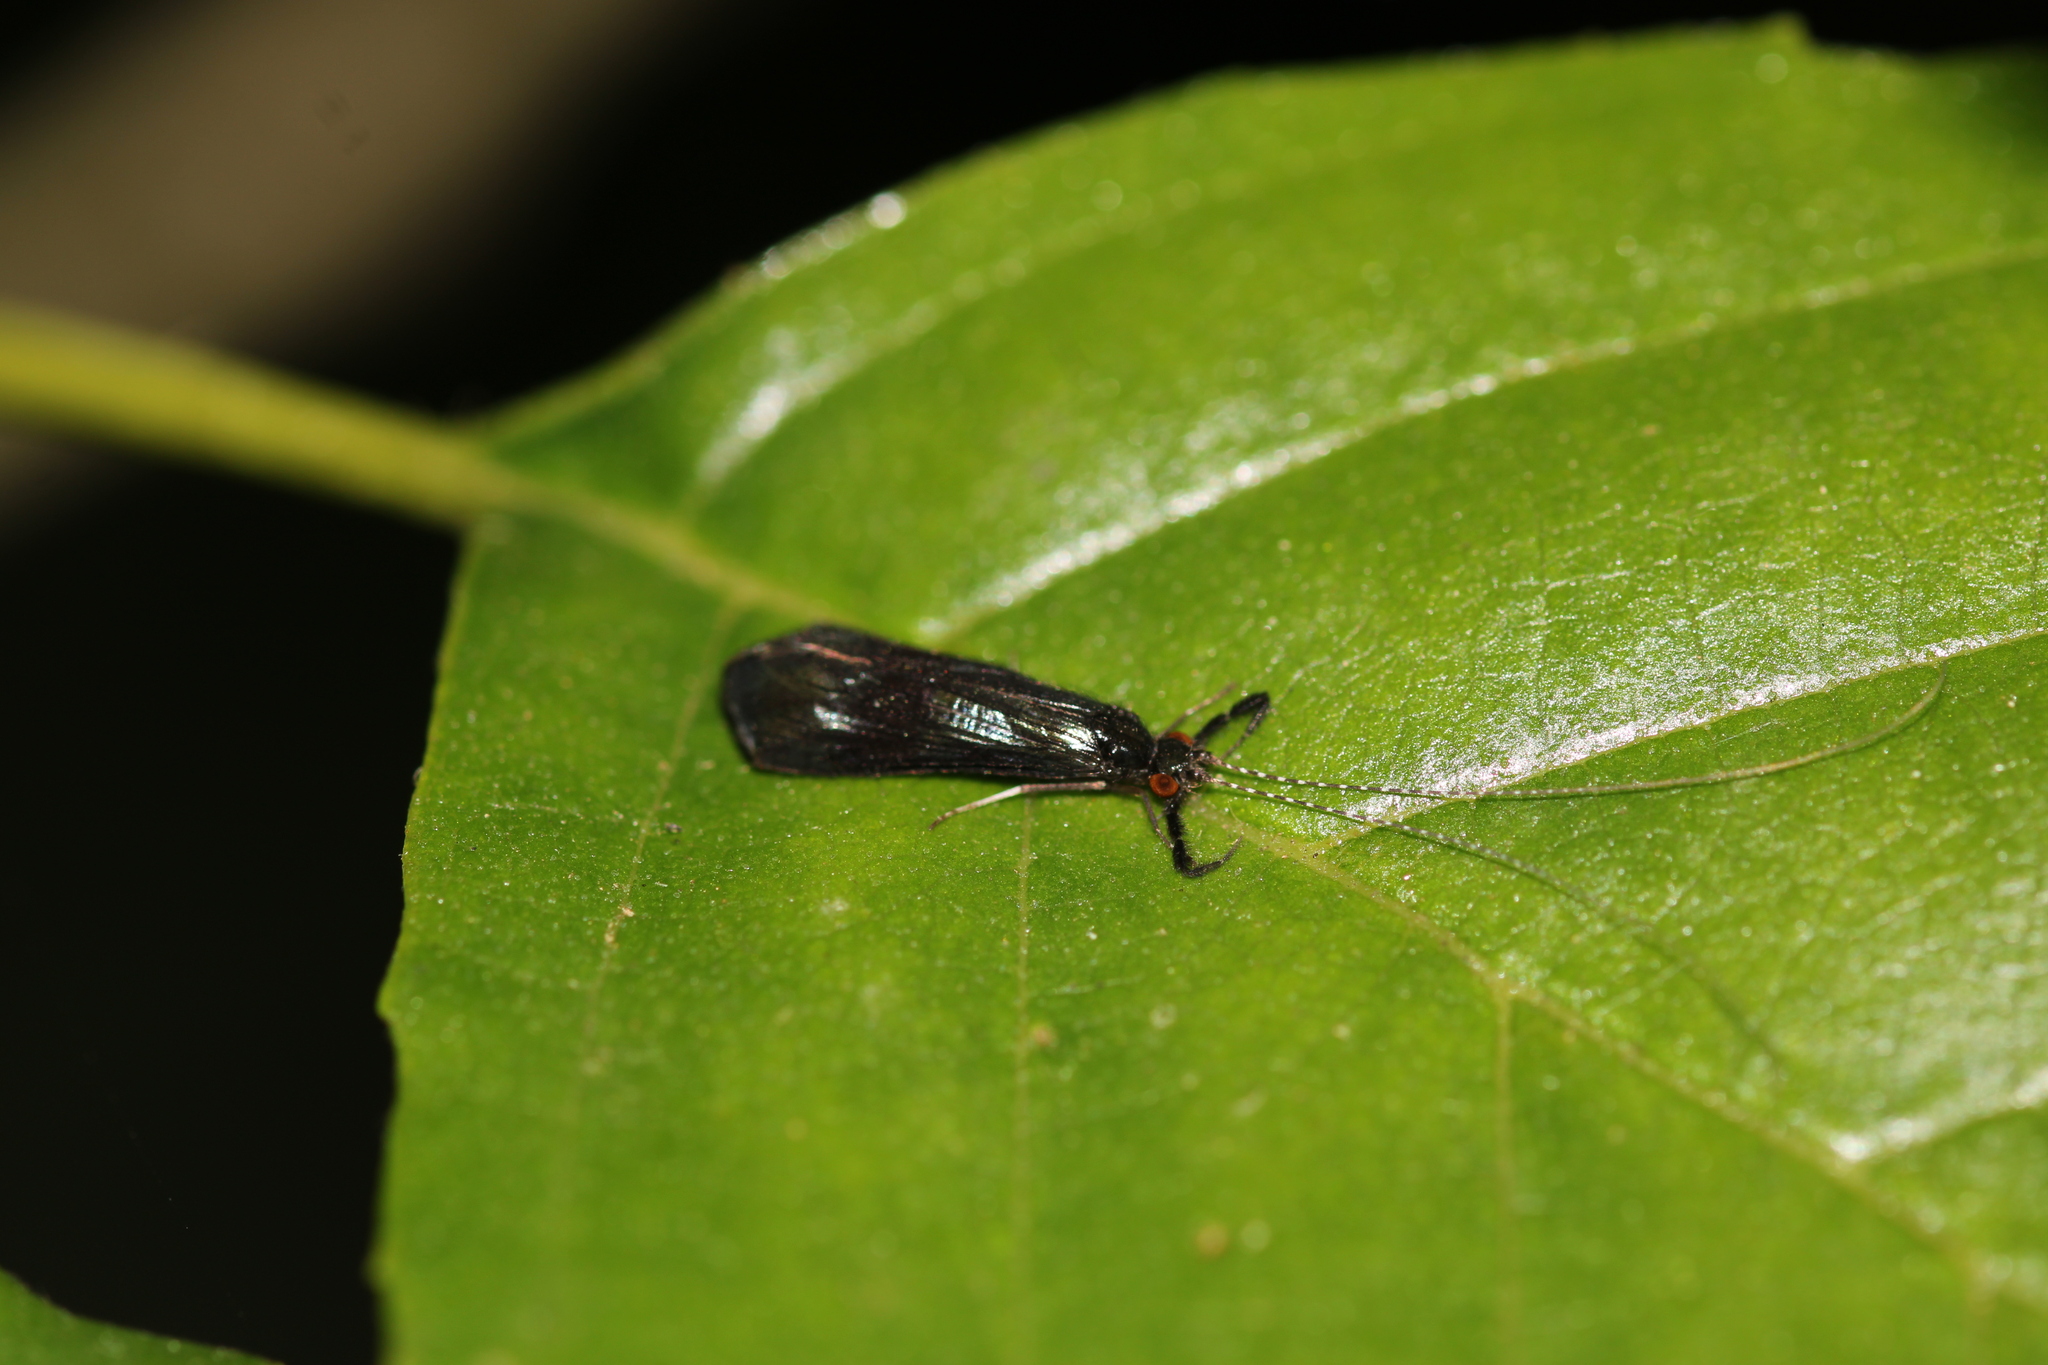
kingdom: Animalia
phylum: Arthropoda
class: Insecta
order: Trichoptera
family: Leptoceridae
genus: Mystacides
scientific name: Mystacides azureus
